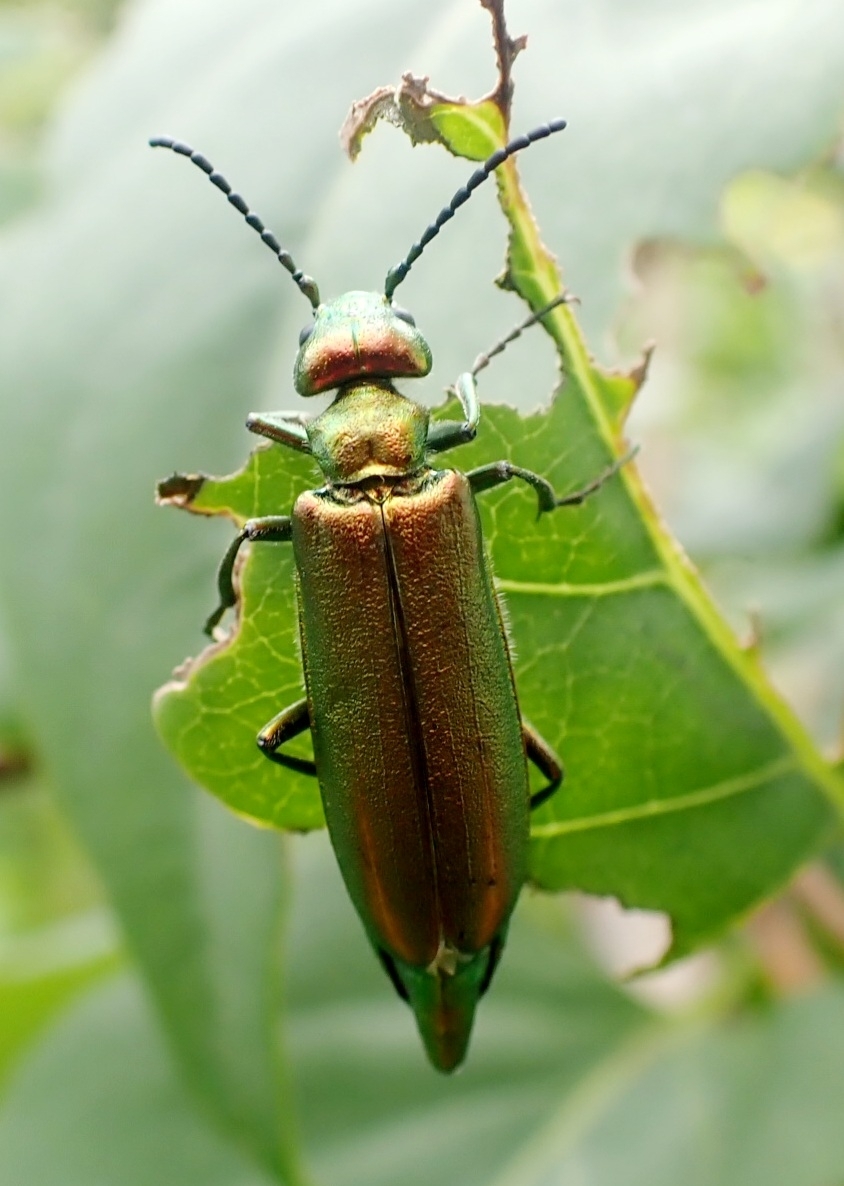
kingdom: Animalia
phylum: Arthropoda
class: Insecta
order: Coleoptera
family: Meloidae
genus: Lytta
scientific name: Lytta vesicatoria
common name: Spanish fly
